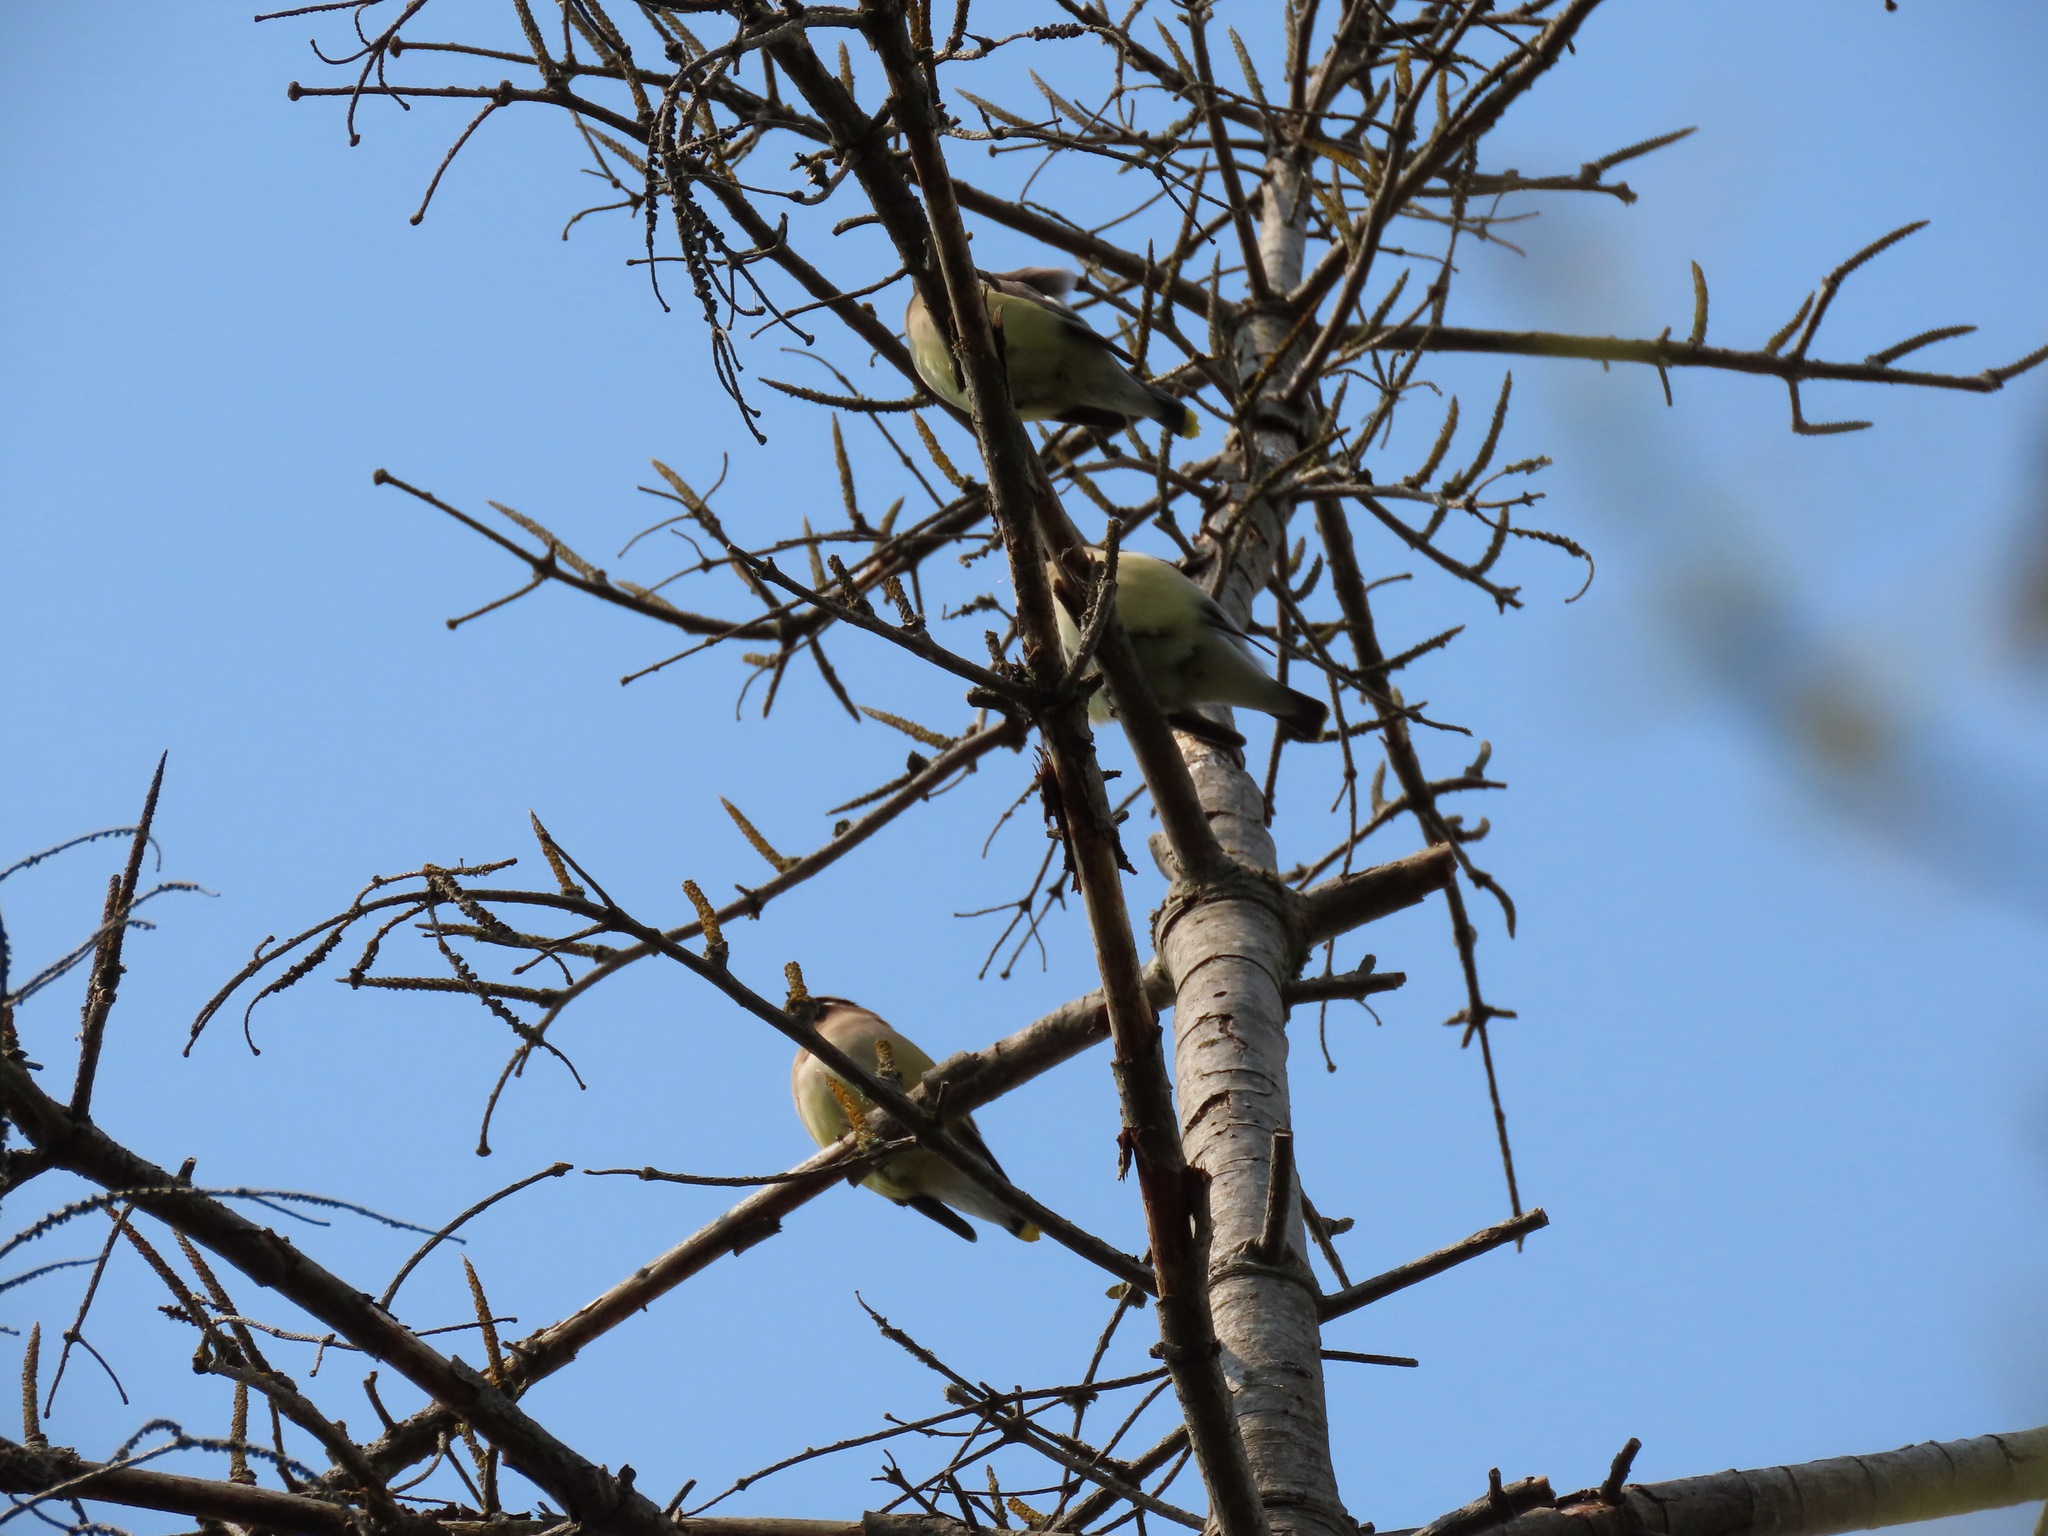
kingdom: Animalia
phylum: Chordata
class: Aves
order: Passeriformes
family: Bombycillidae
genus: Bombycilla
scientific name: Bombycilla cedrorum
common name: Cedar waxwing
